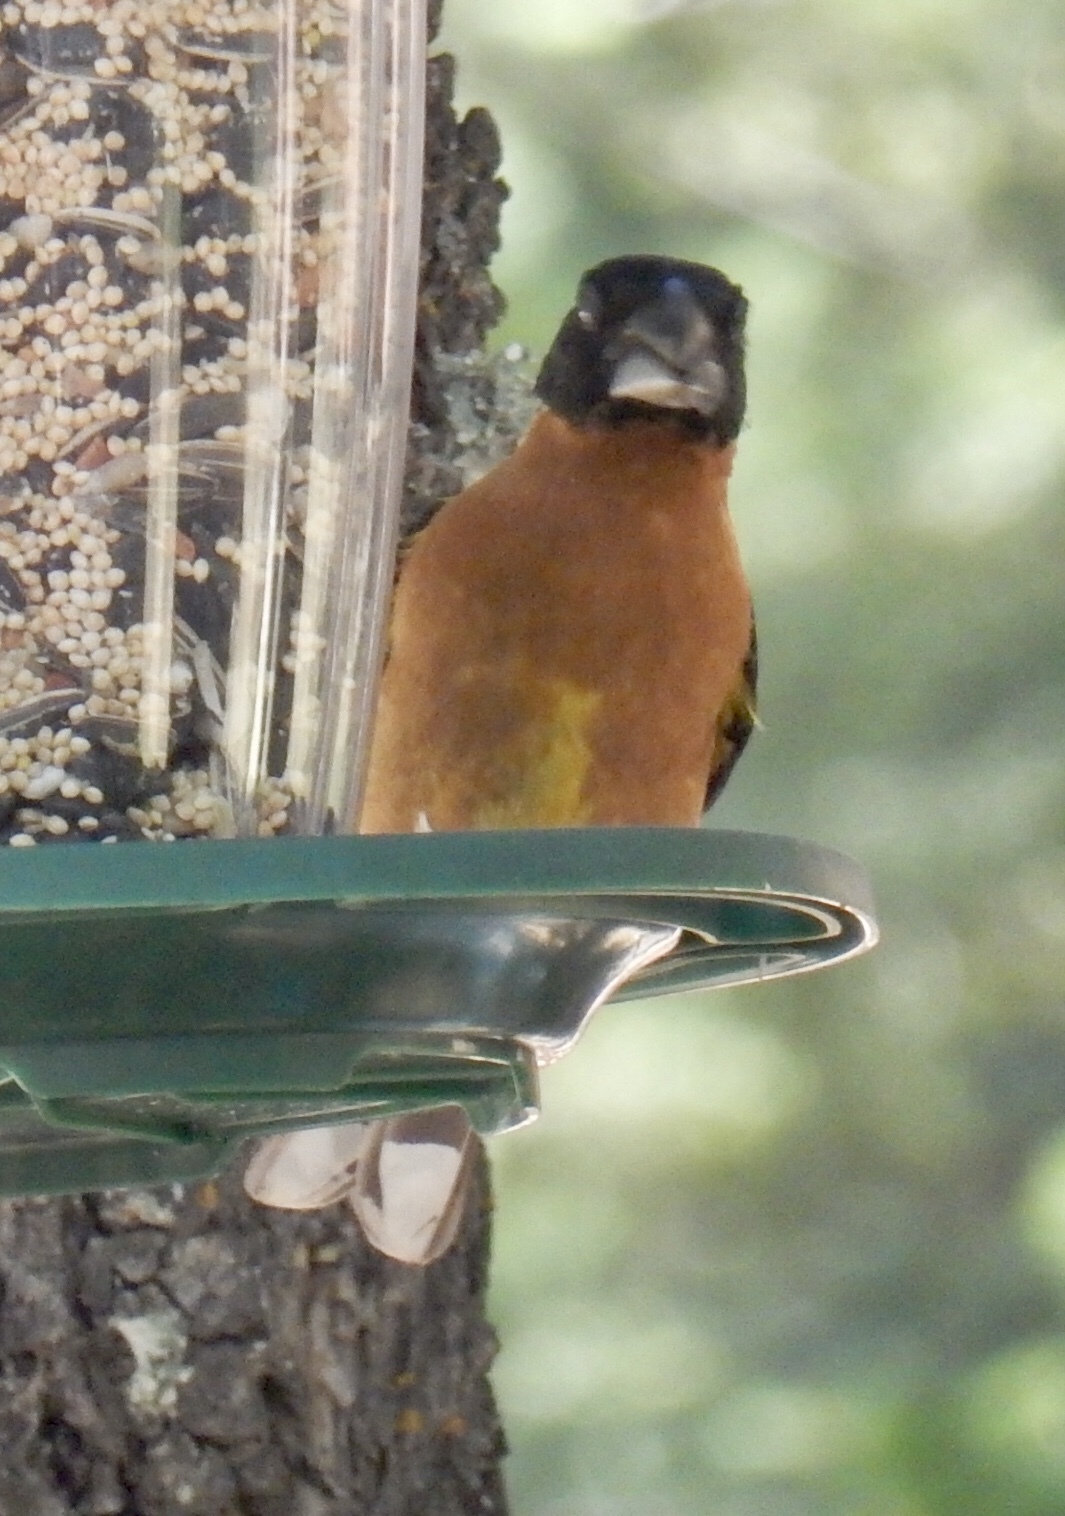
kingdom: Animalia
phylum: Chordata
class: Aves
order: Passeriformes
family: Cardinalidae
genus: Pheucticus
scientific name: Pheucticus melanocephalus
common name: Black-headed grosbeak
